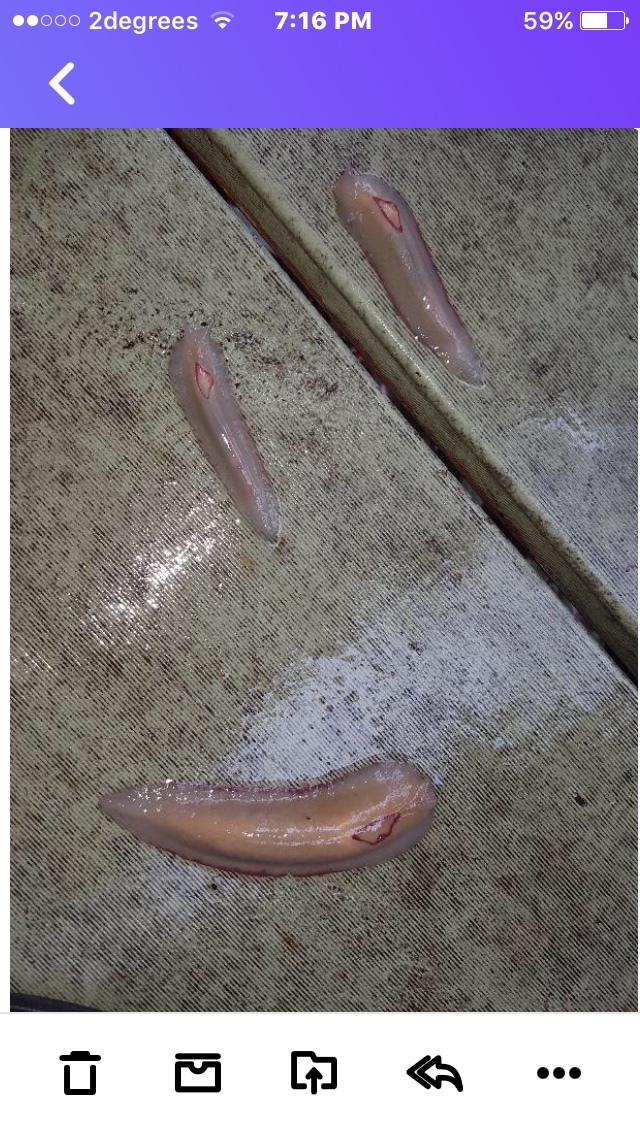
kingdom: Animalia
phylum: Mollusca
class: Gastropoda
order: Stylommatophora
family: Athoracophoridae
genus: Triboniophorus
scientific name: Triboniophorus graeffei
